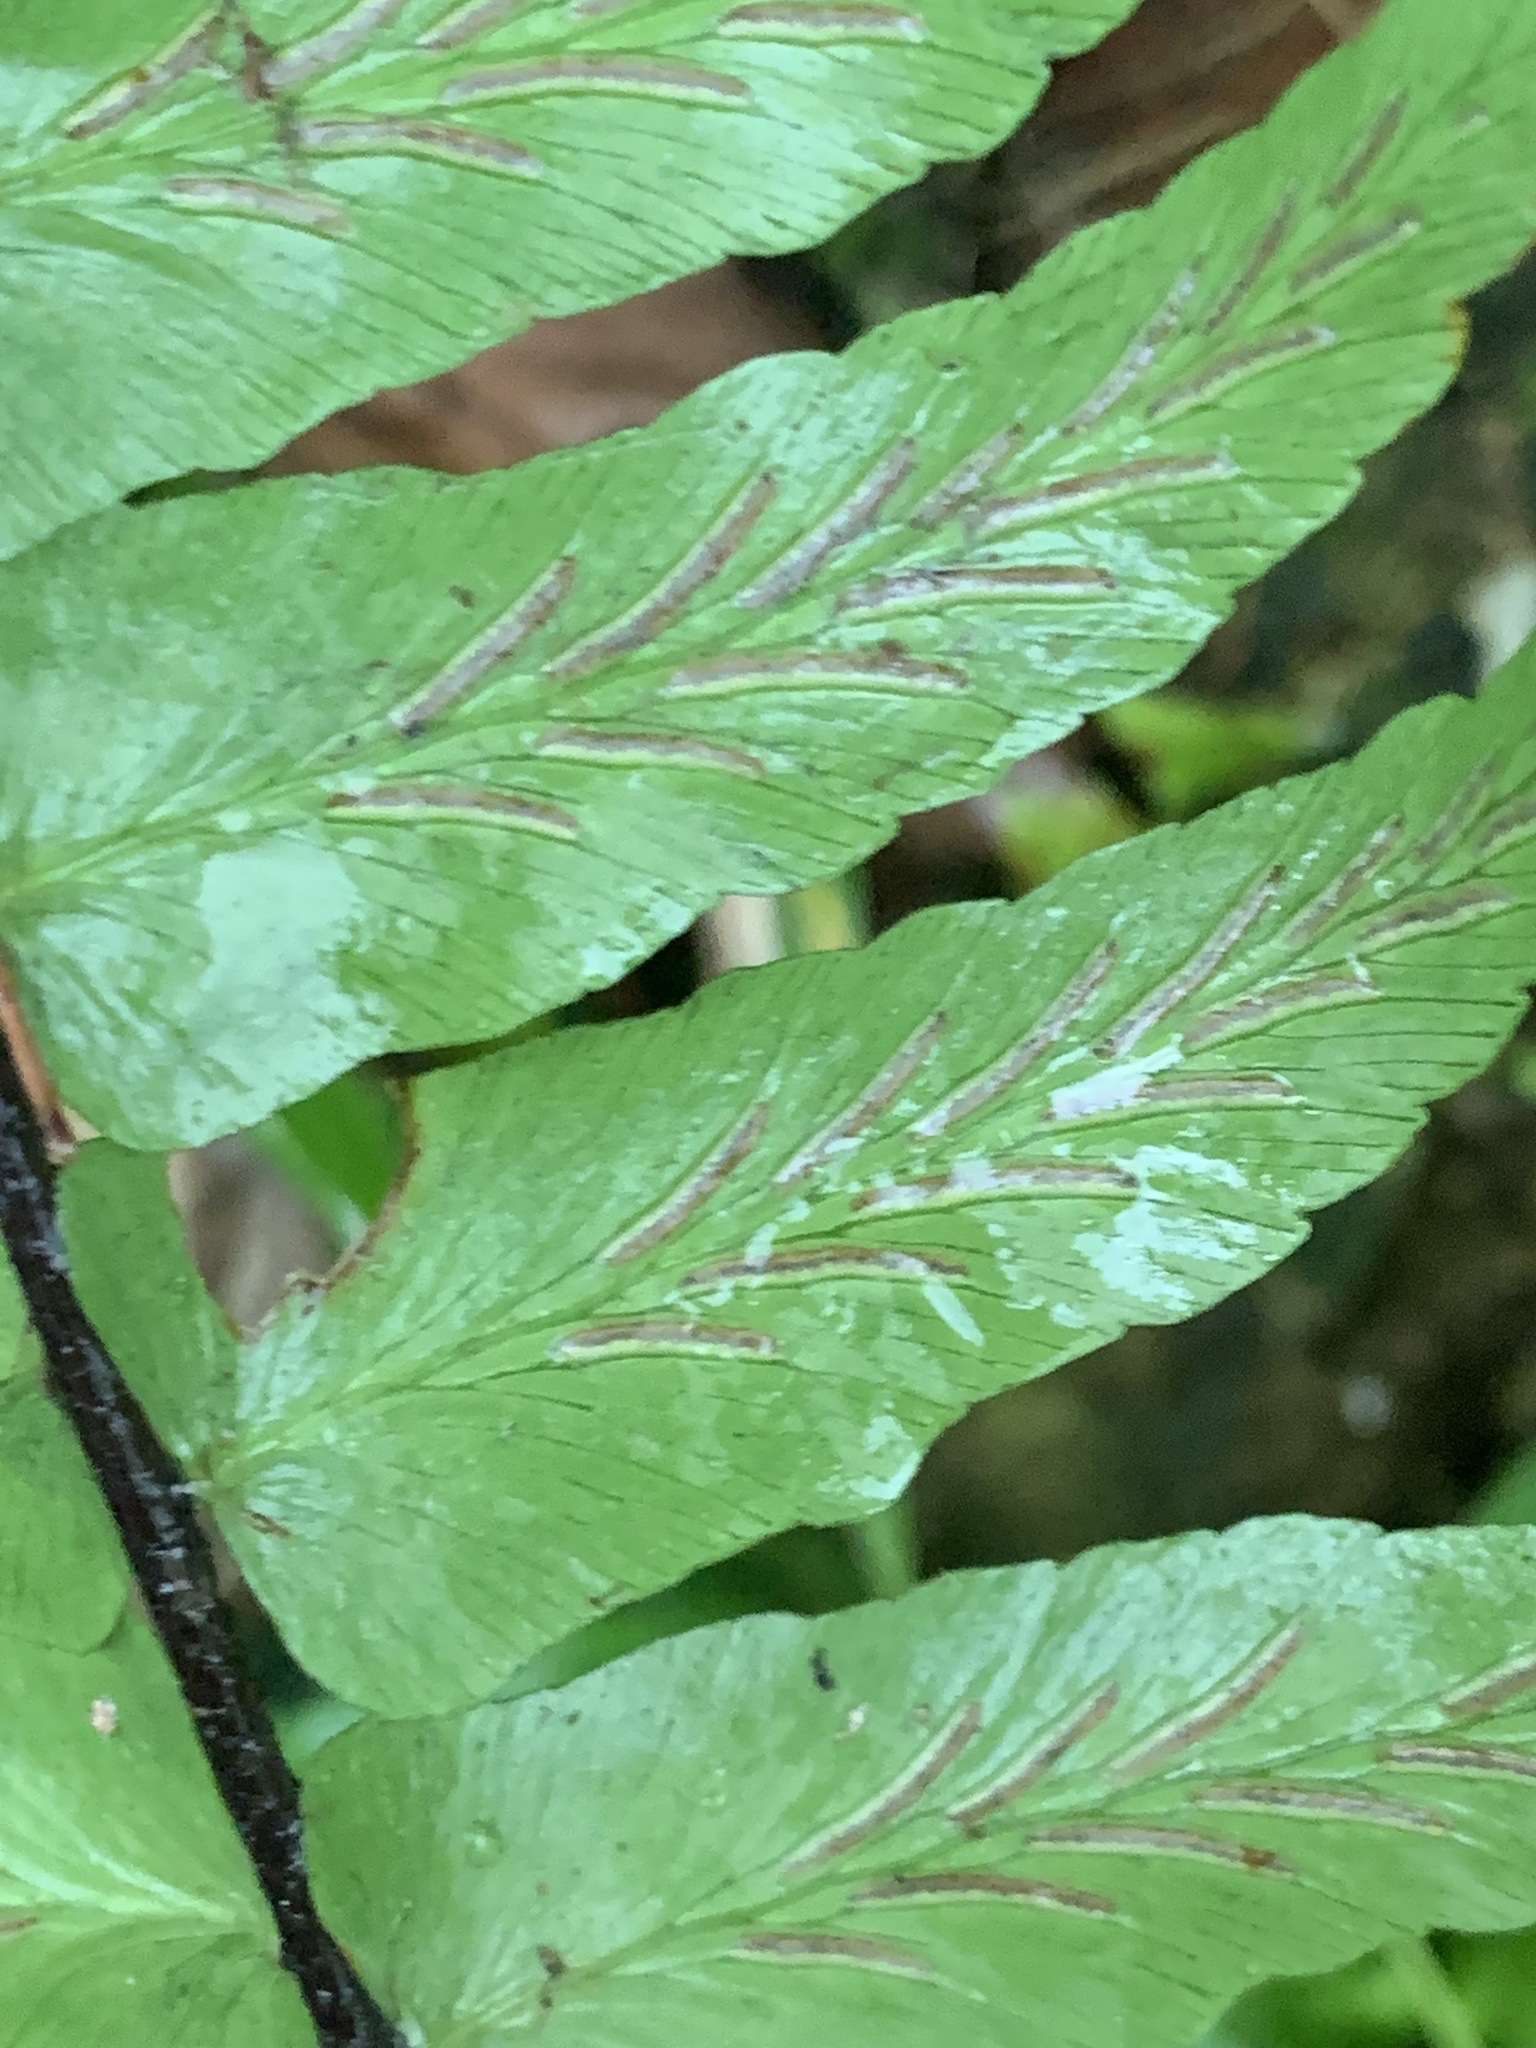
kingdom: Plantae
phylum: Tracheophyta
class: Polypodiopsida
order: Polypodiales
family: Aspleniaceae
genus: Asplenium
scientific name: Asplenium longissimum
